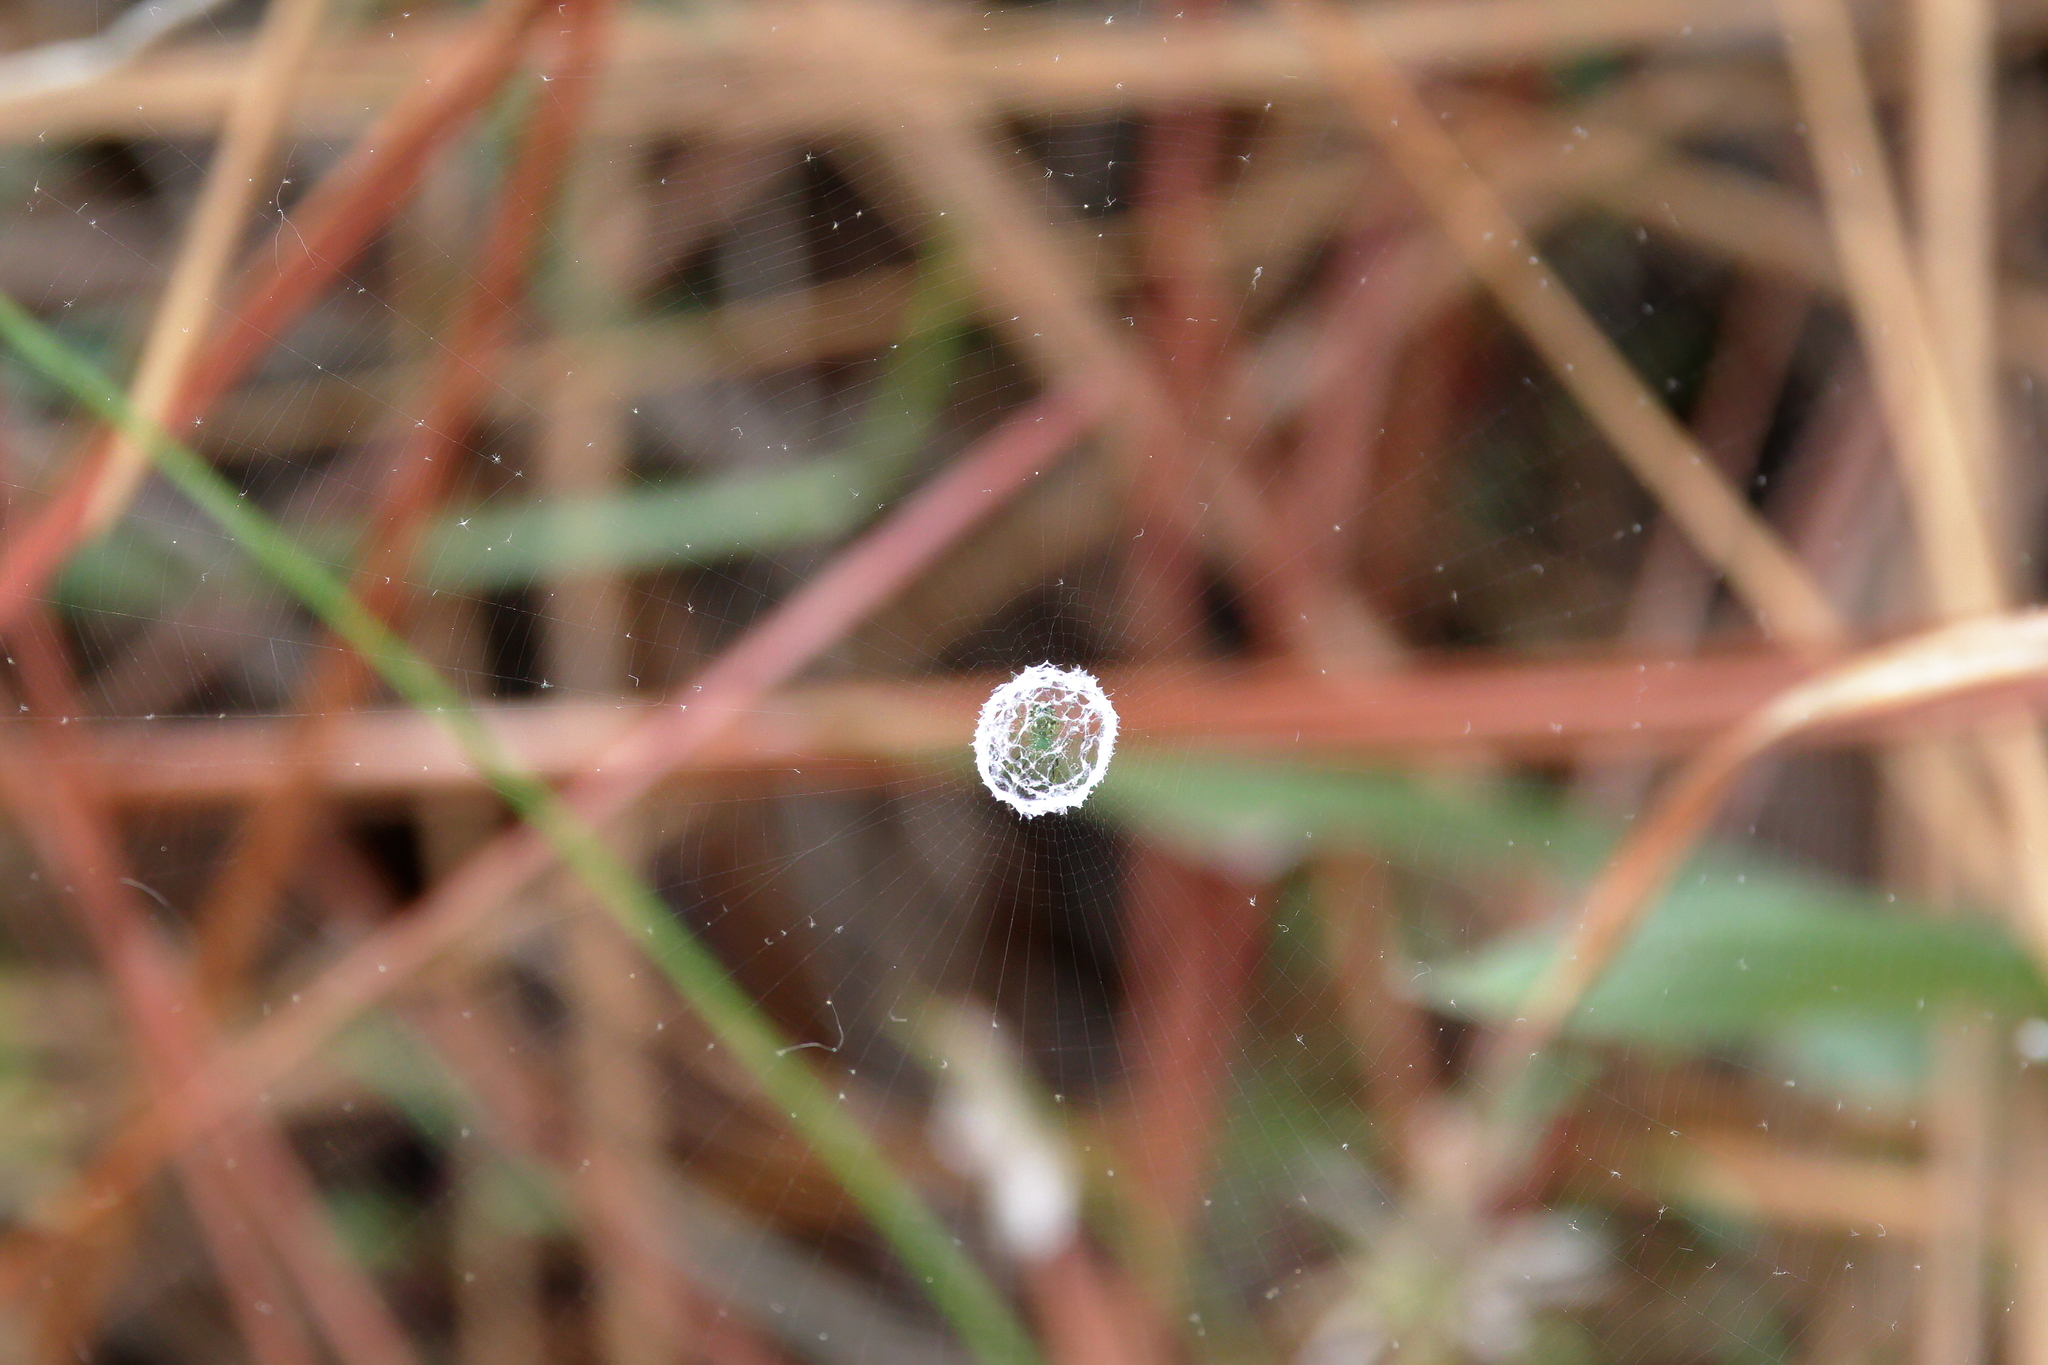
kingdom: Animalia
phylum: Arthropoda
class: Arachnida
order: Araneae
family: Araneidae
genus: Mangora
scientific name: Mangora gibberosa
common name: Lined orbweaver
